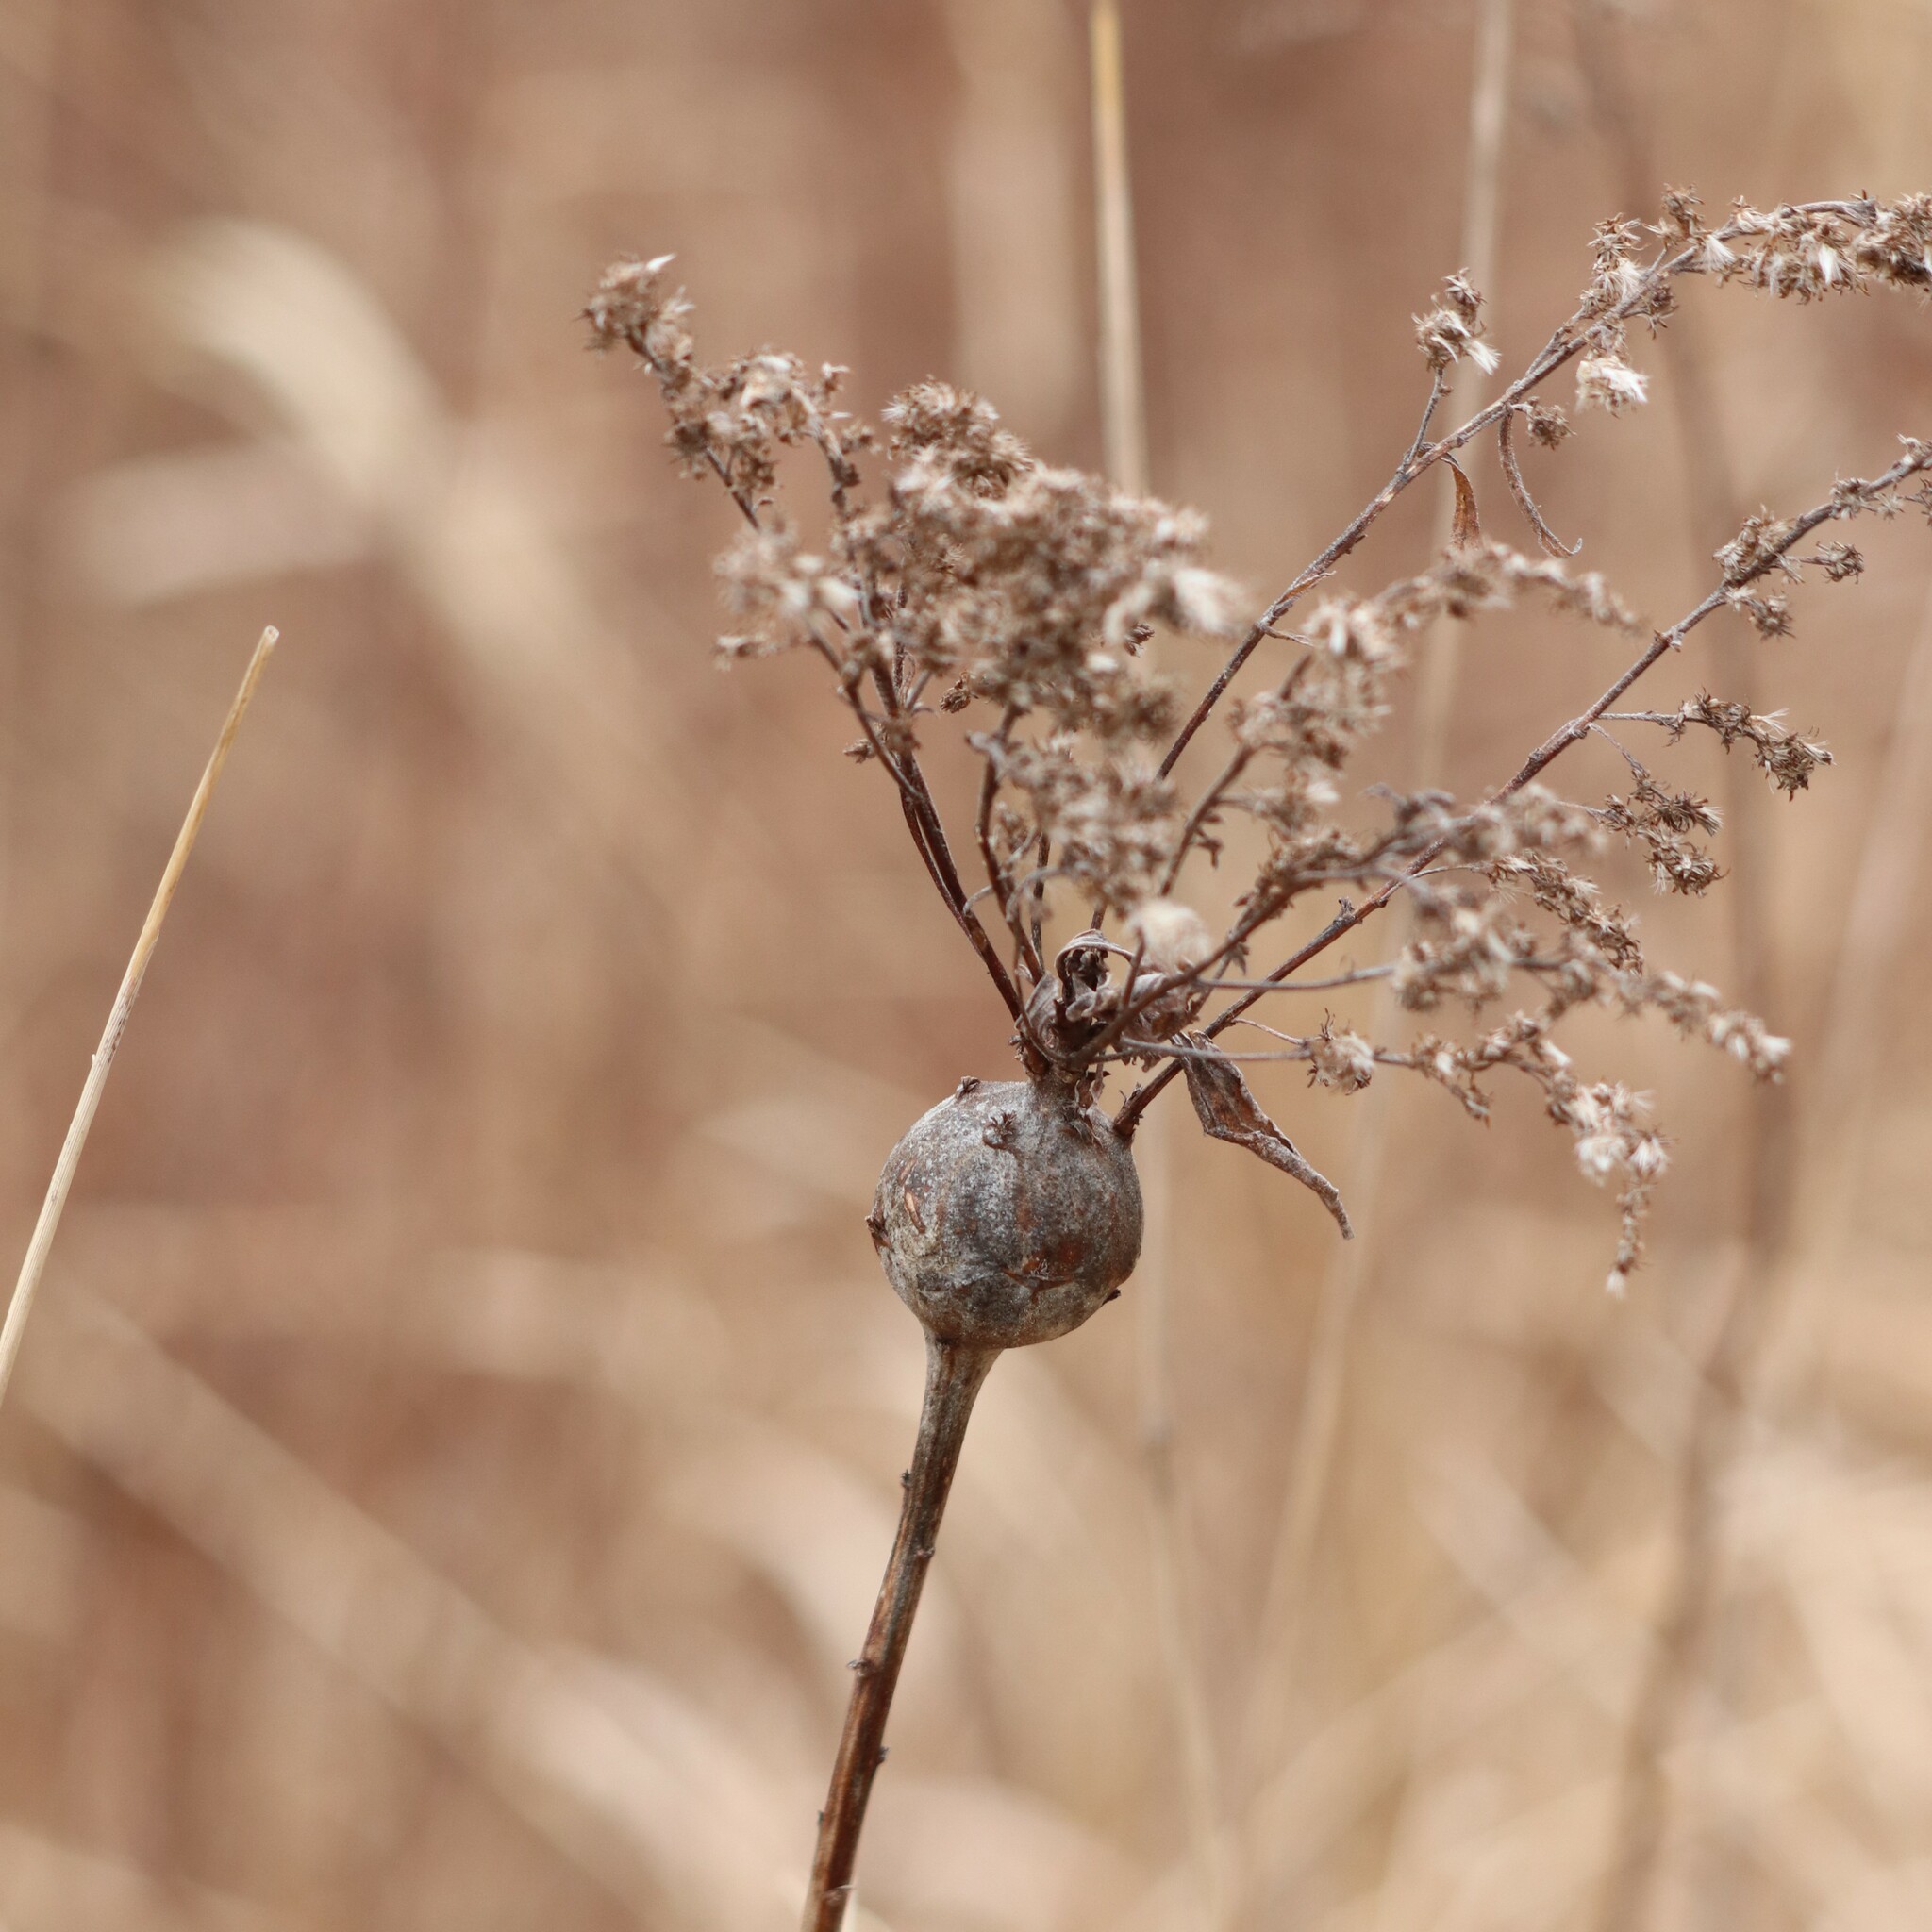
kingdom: Animalia
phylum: Arthropoda
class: Insecta
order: Diptera
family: Tephritidae
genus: Eurosta
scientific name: Eurosta solidaginis
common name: Goldenrod gall fly
